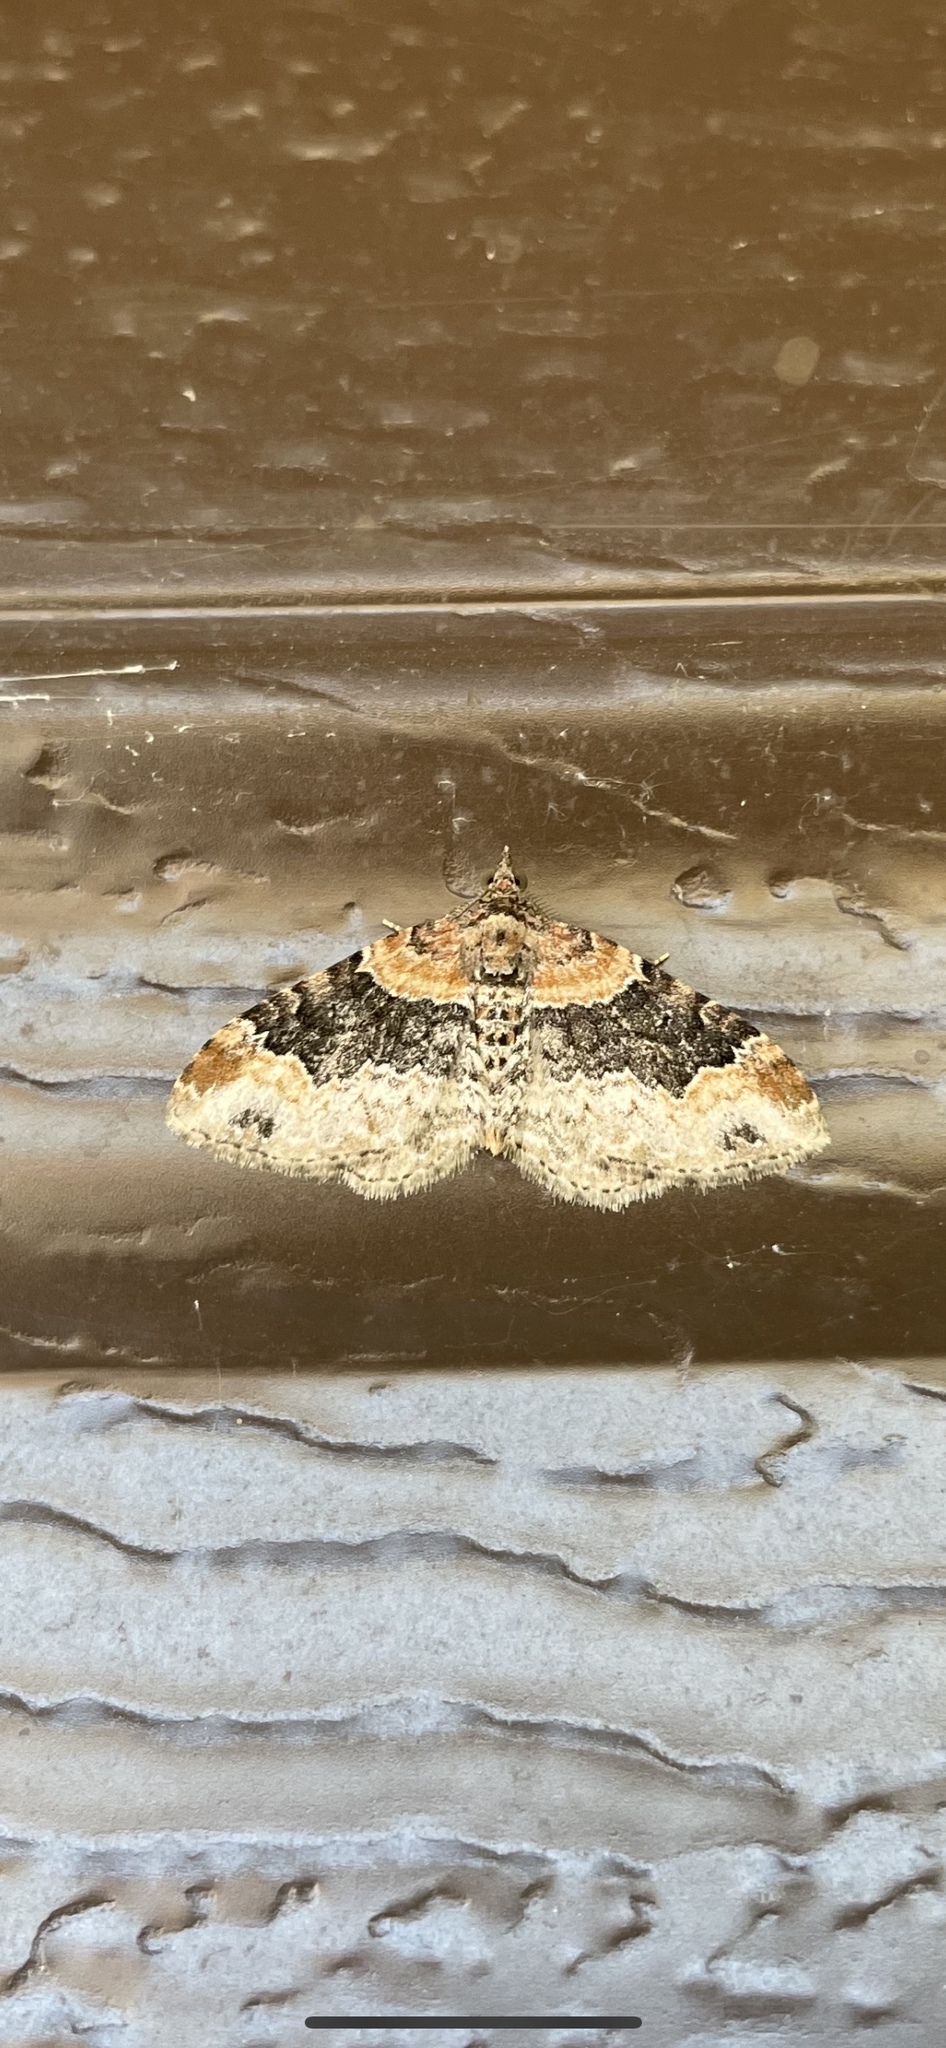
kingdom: Animalia
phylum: Arthropoda
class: Insecta
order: Lepidoptera
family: Geometridae
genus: Xanthorhoe
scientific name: Xanthorhoe ferrugata
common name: Dark-barred twin-spot carpet
